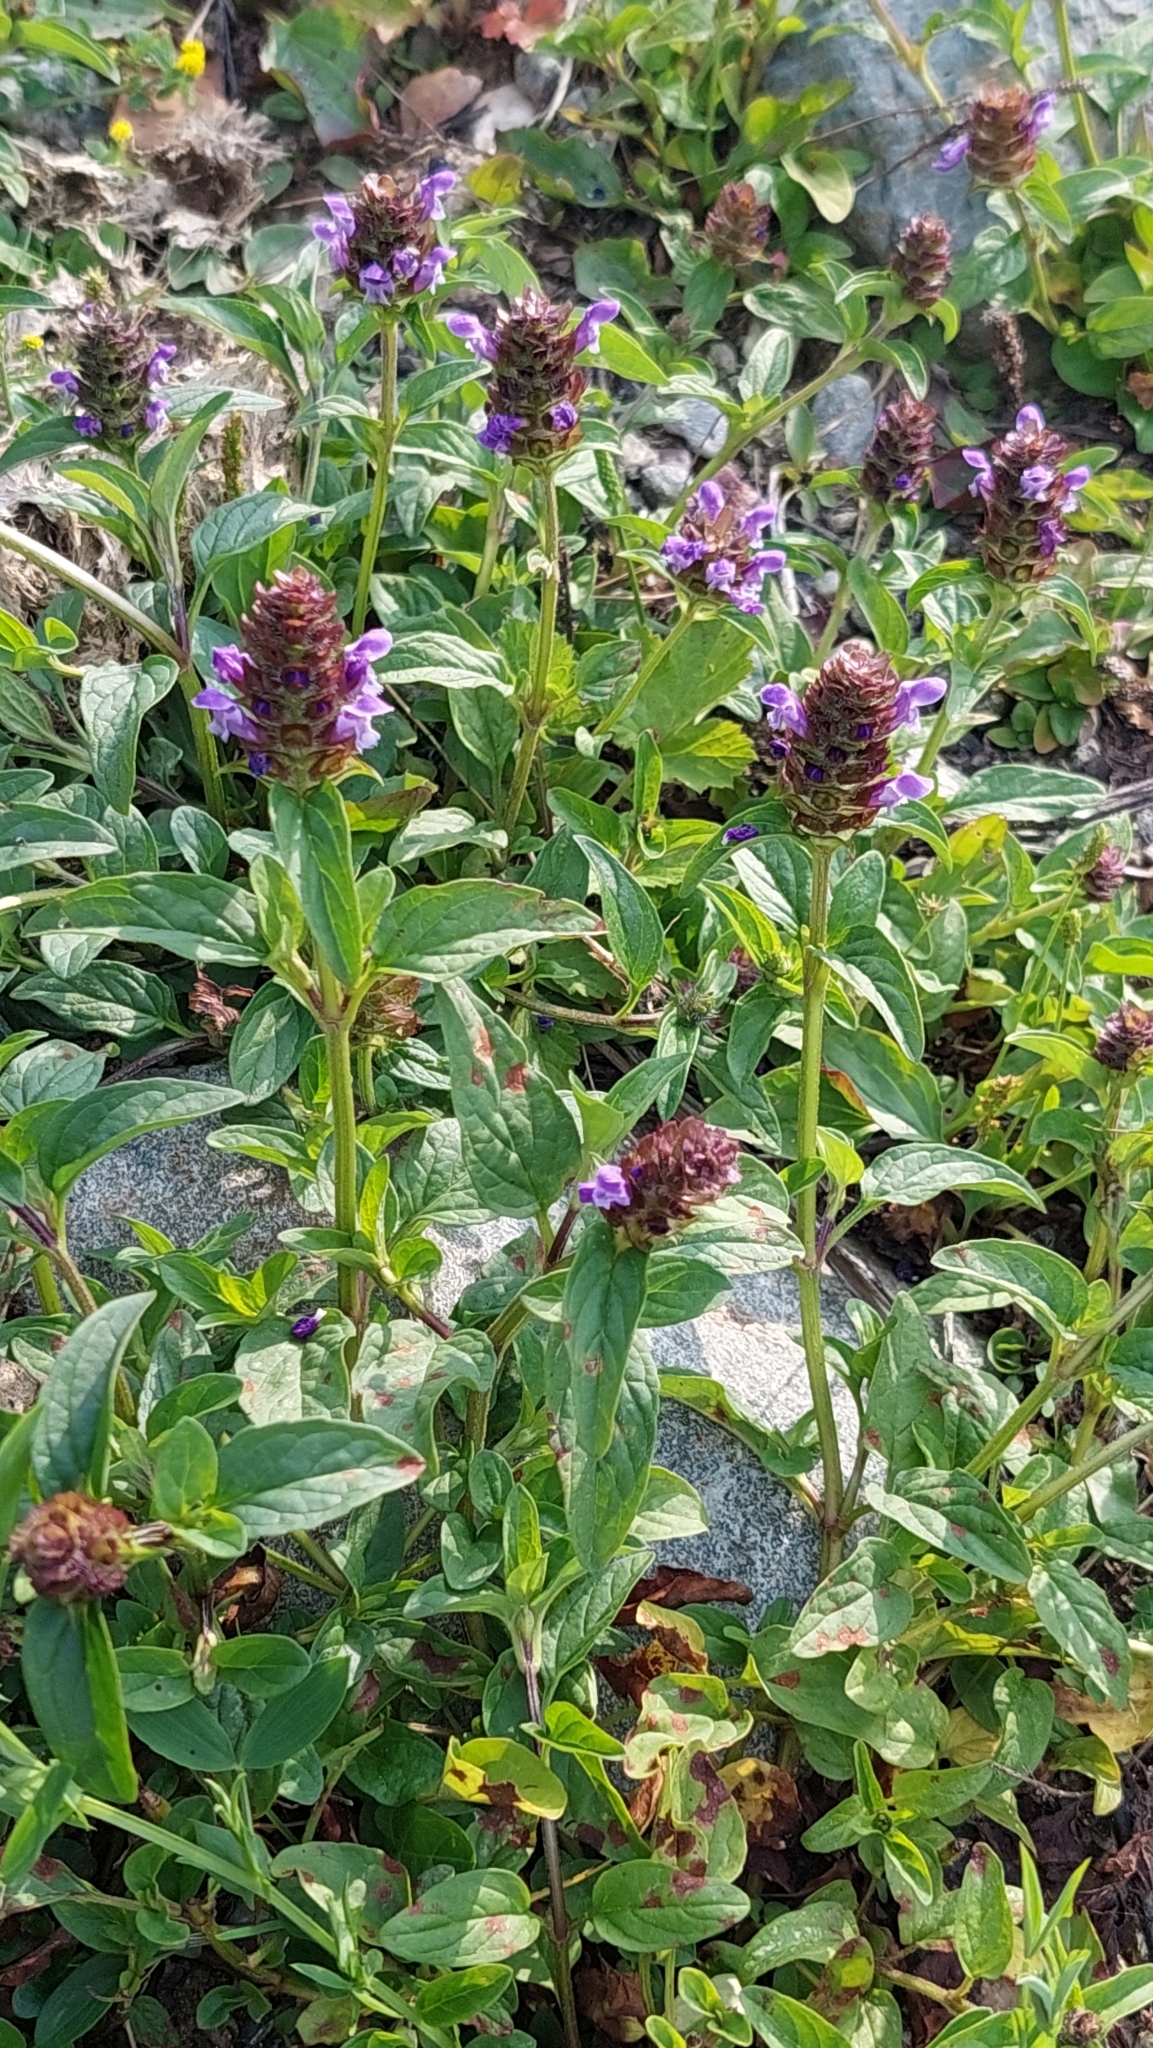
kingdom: Plantae
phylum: Tracheophyta
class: Magnoliopsida
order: Lamiales
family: Lamiaceae
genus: Prunella
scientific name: Prunella vulgaris
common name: Heal-all
